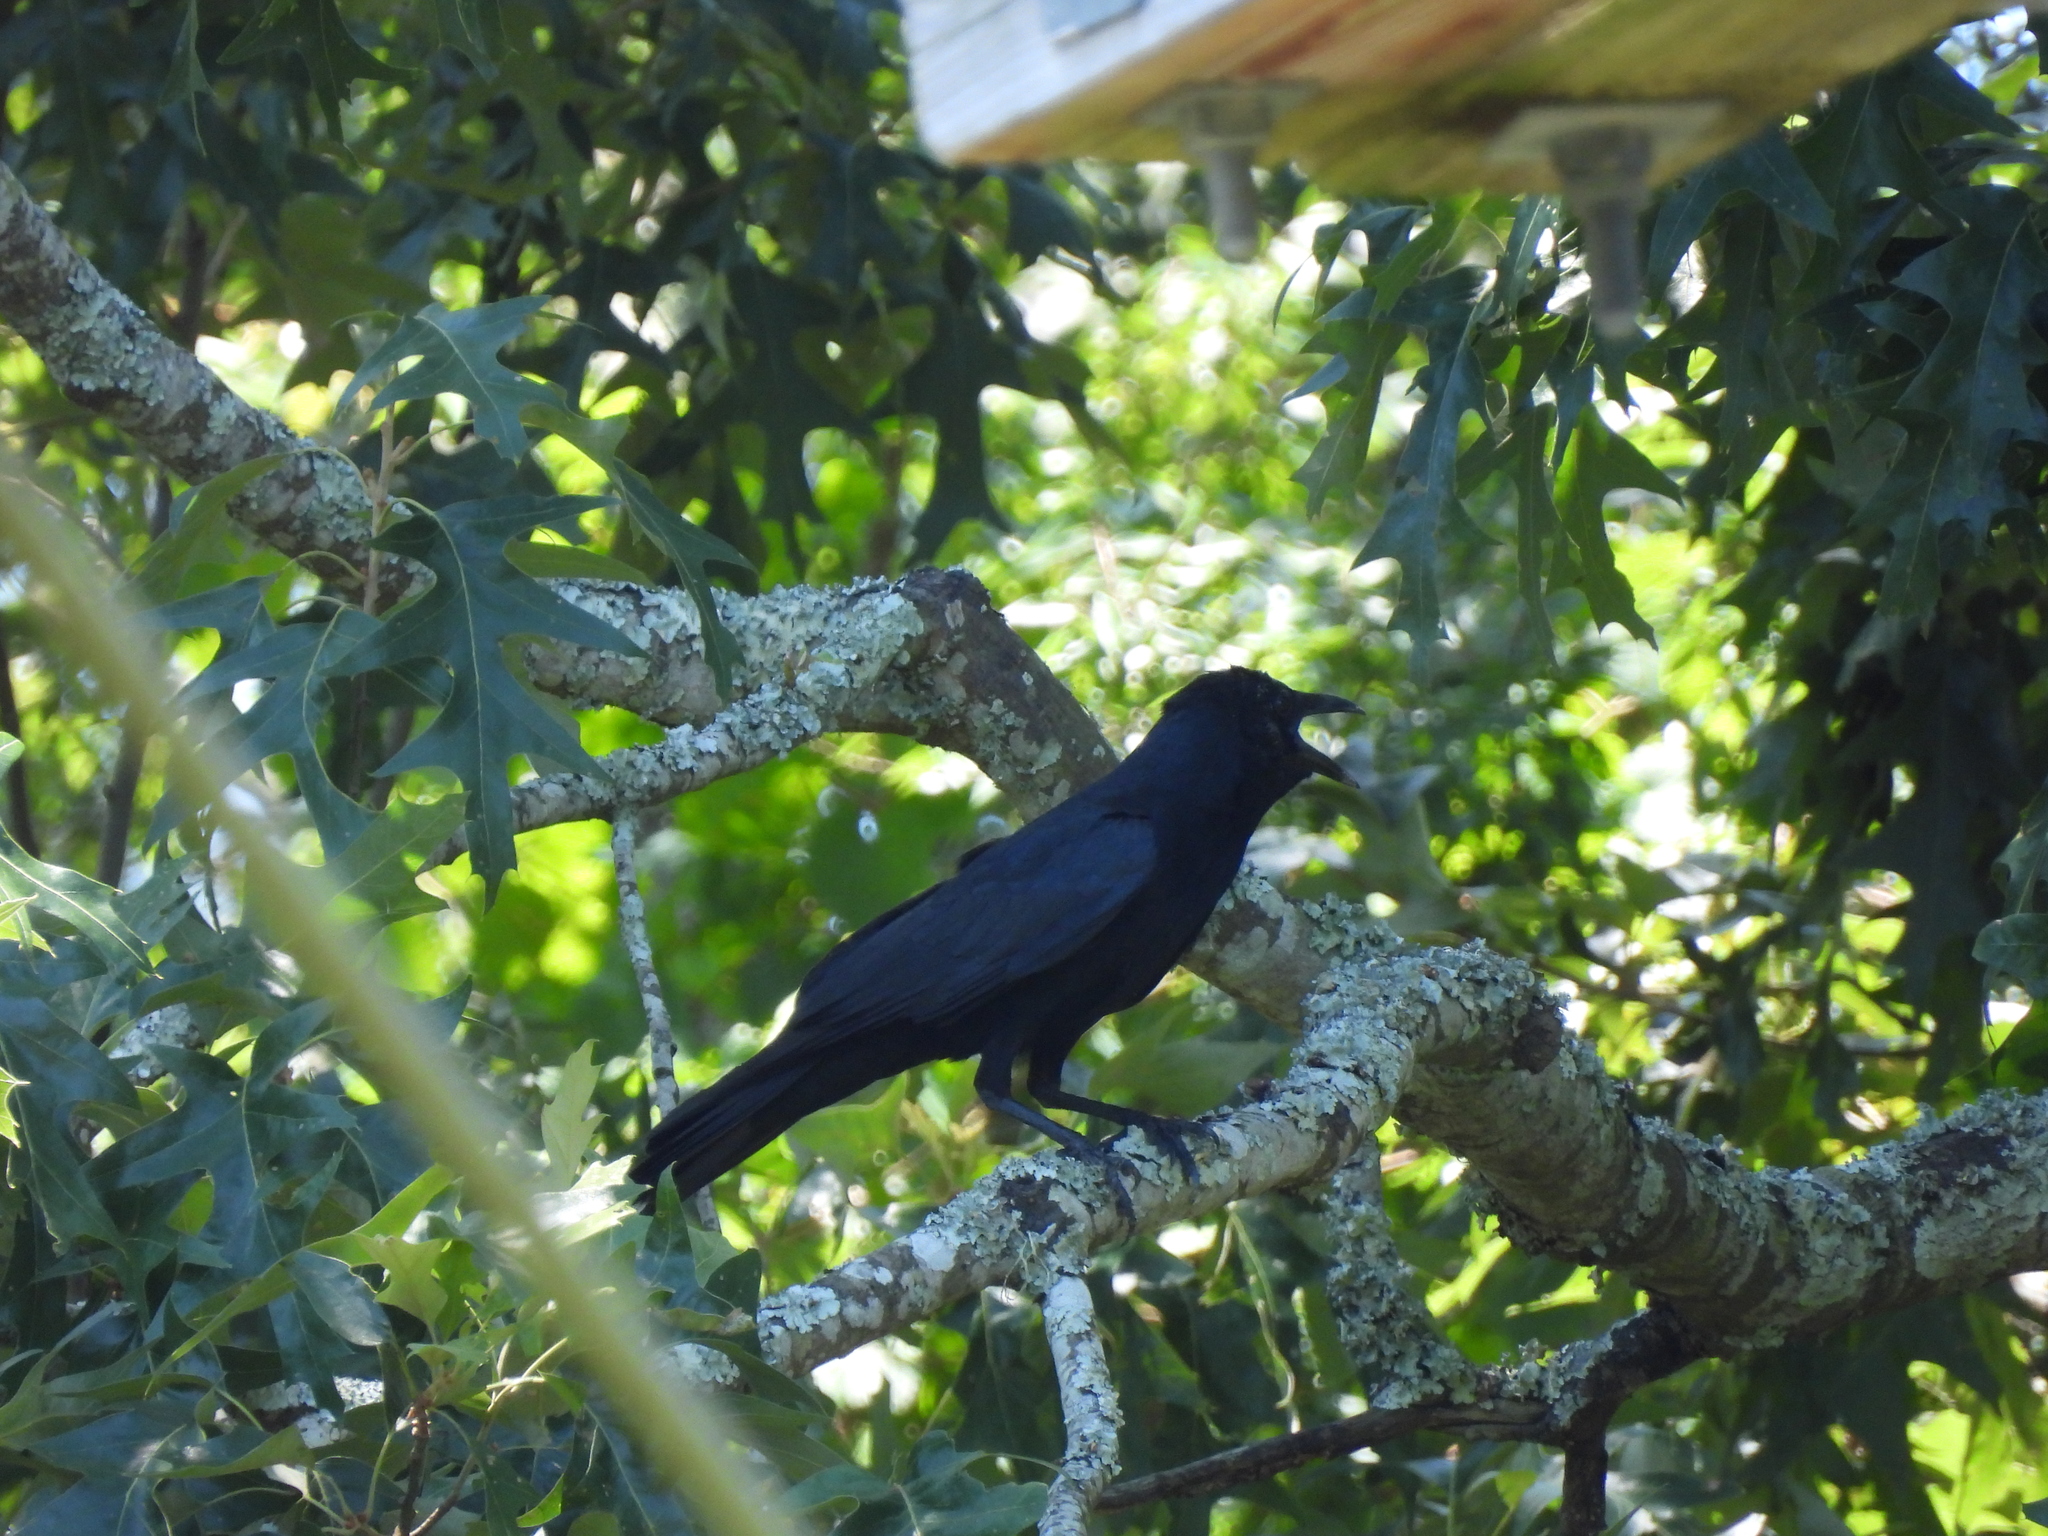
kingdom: Animalia
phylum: Chordata
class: Aves
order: Passeriformes
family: Corvidae
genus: Corvus
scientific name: Corvus ossifragus
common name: Fish crow
